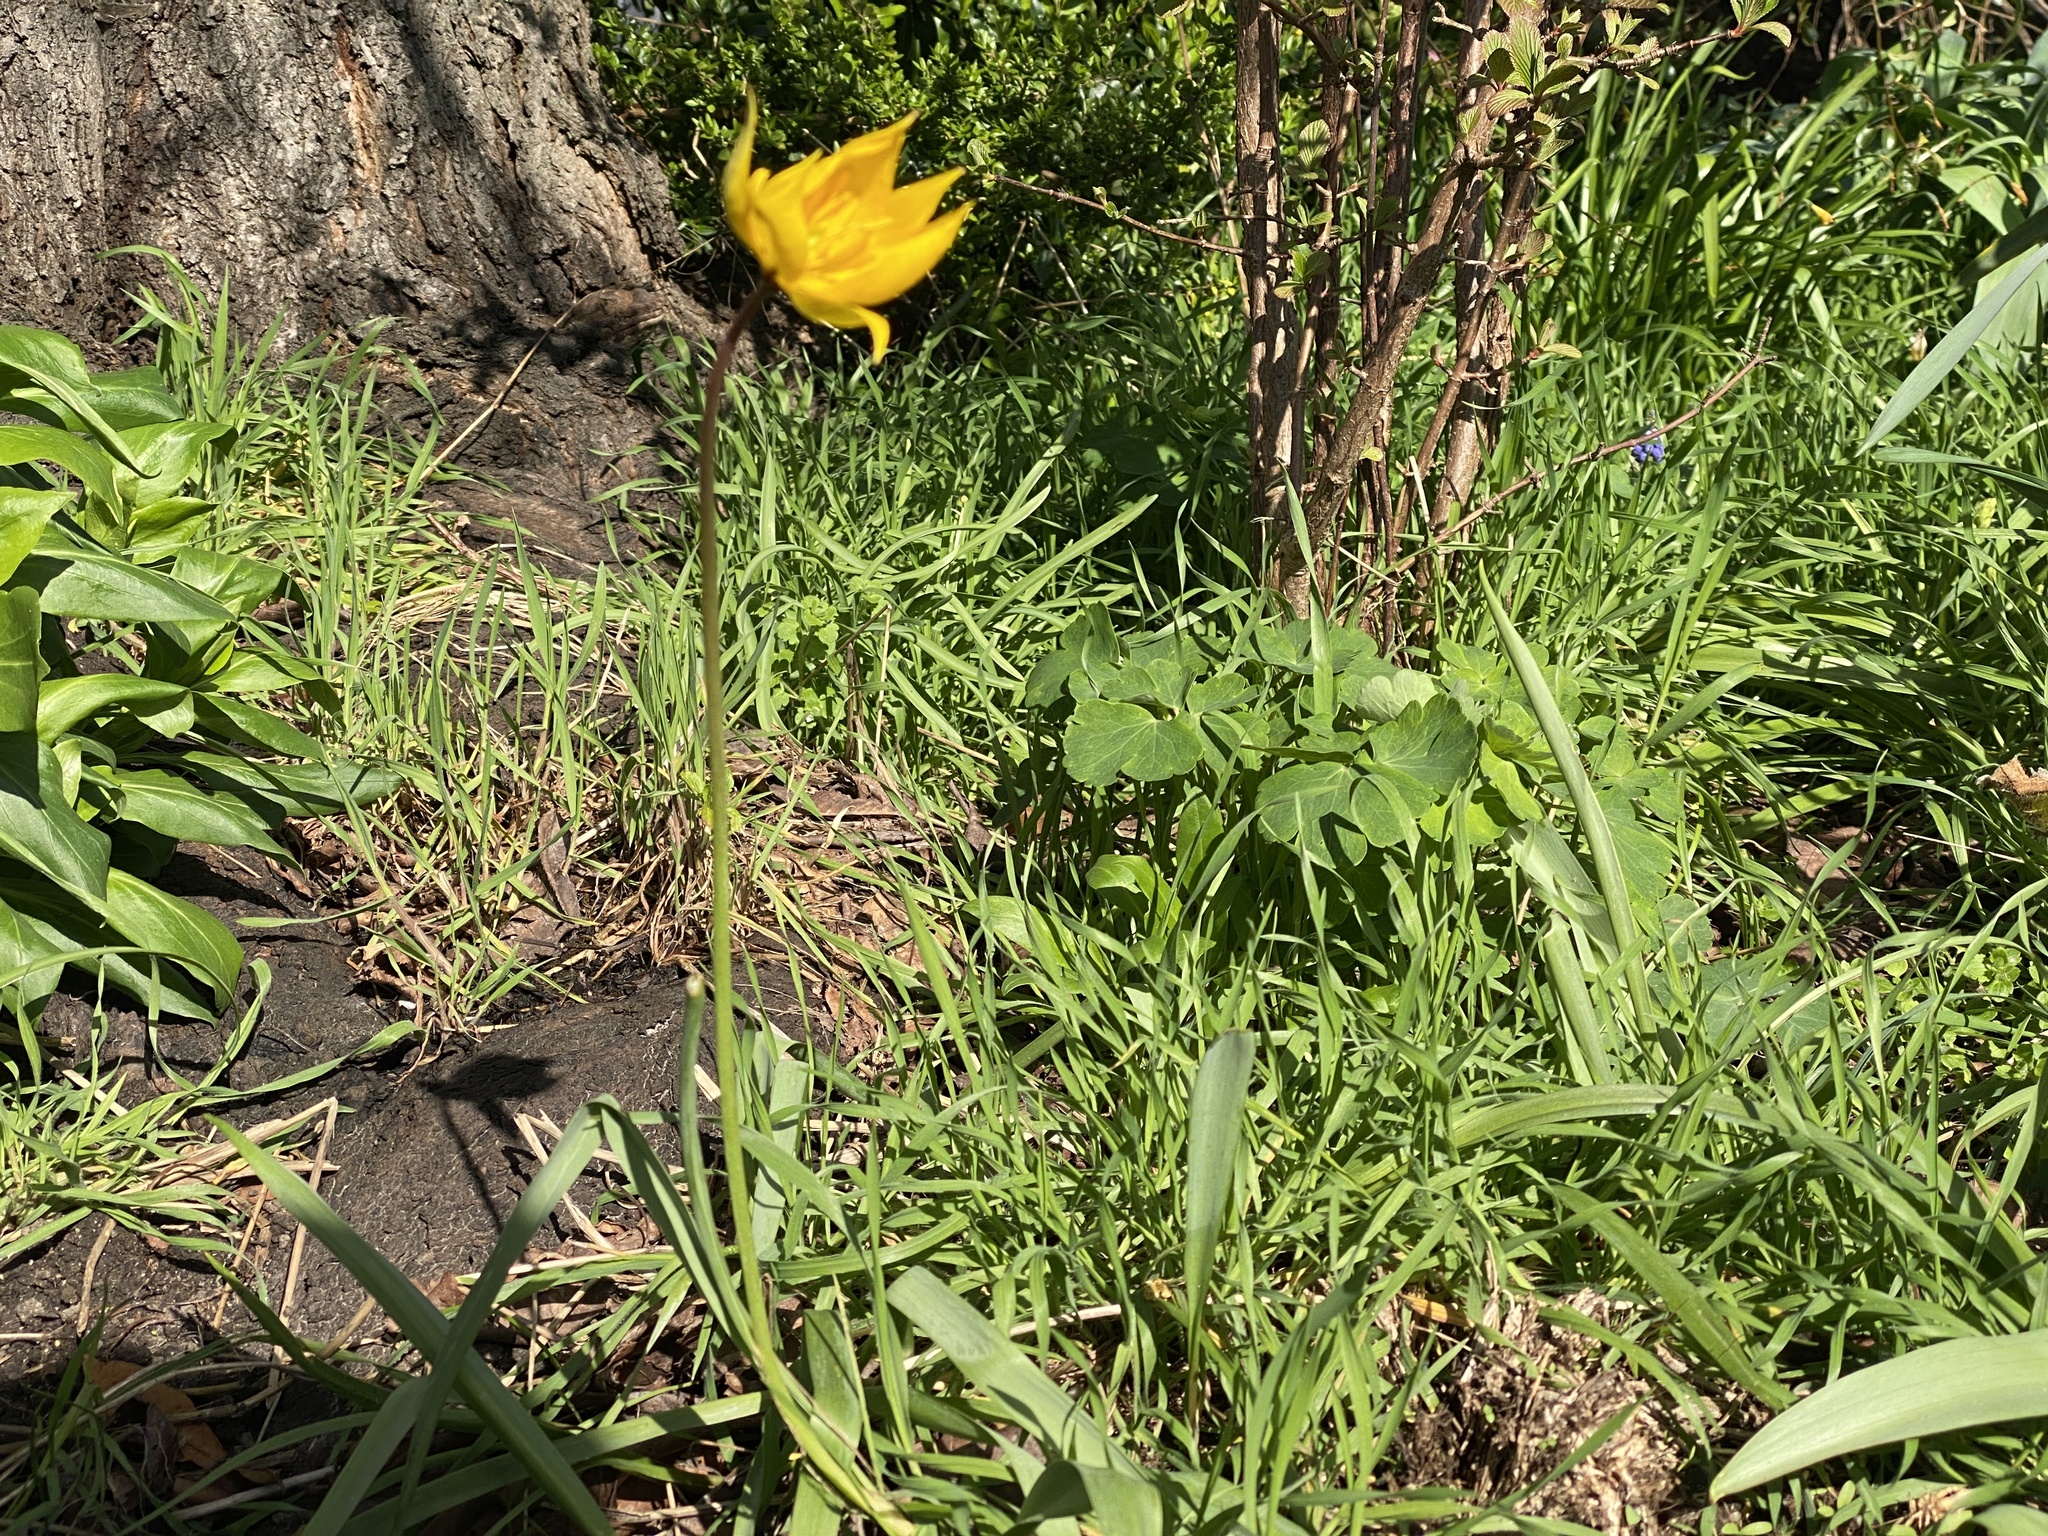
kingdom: Plantae
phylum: Tracheophyta
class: Liliopsida
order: Liliales
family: Liliaceae
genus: Tulipa
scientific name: Tulipa sylvestris
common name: Wild tulip
